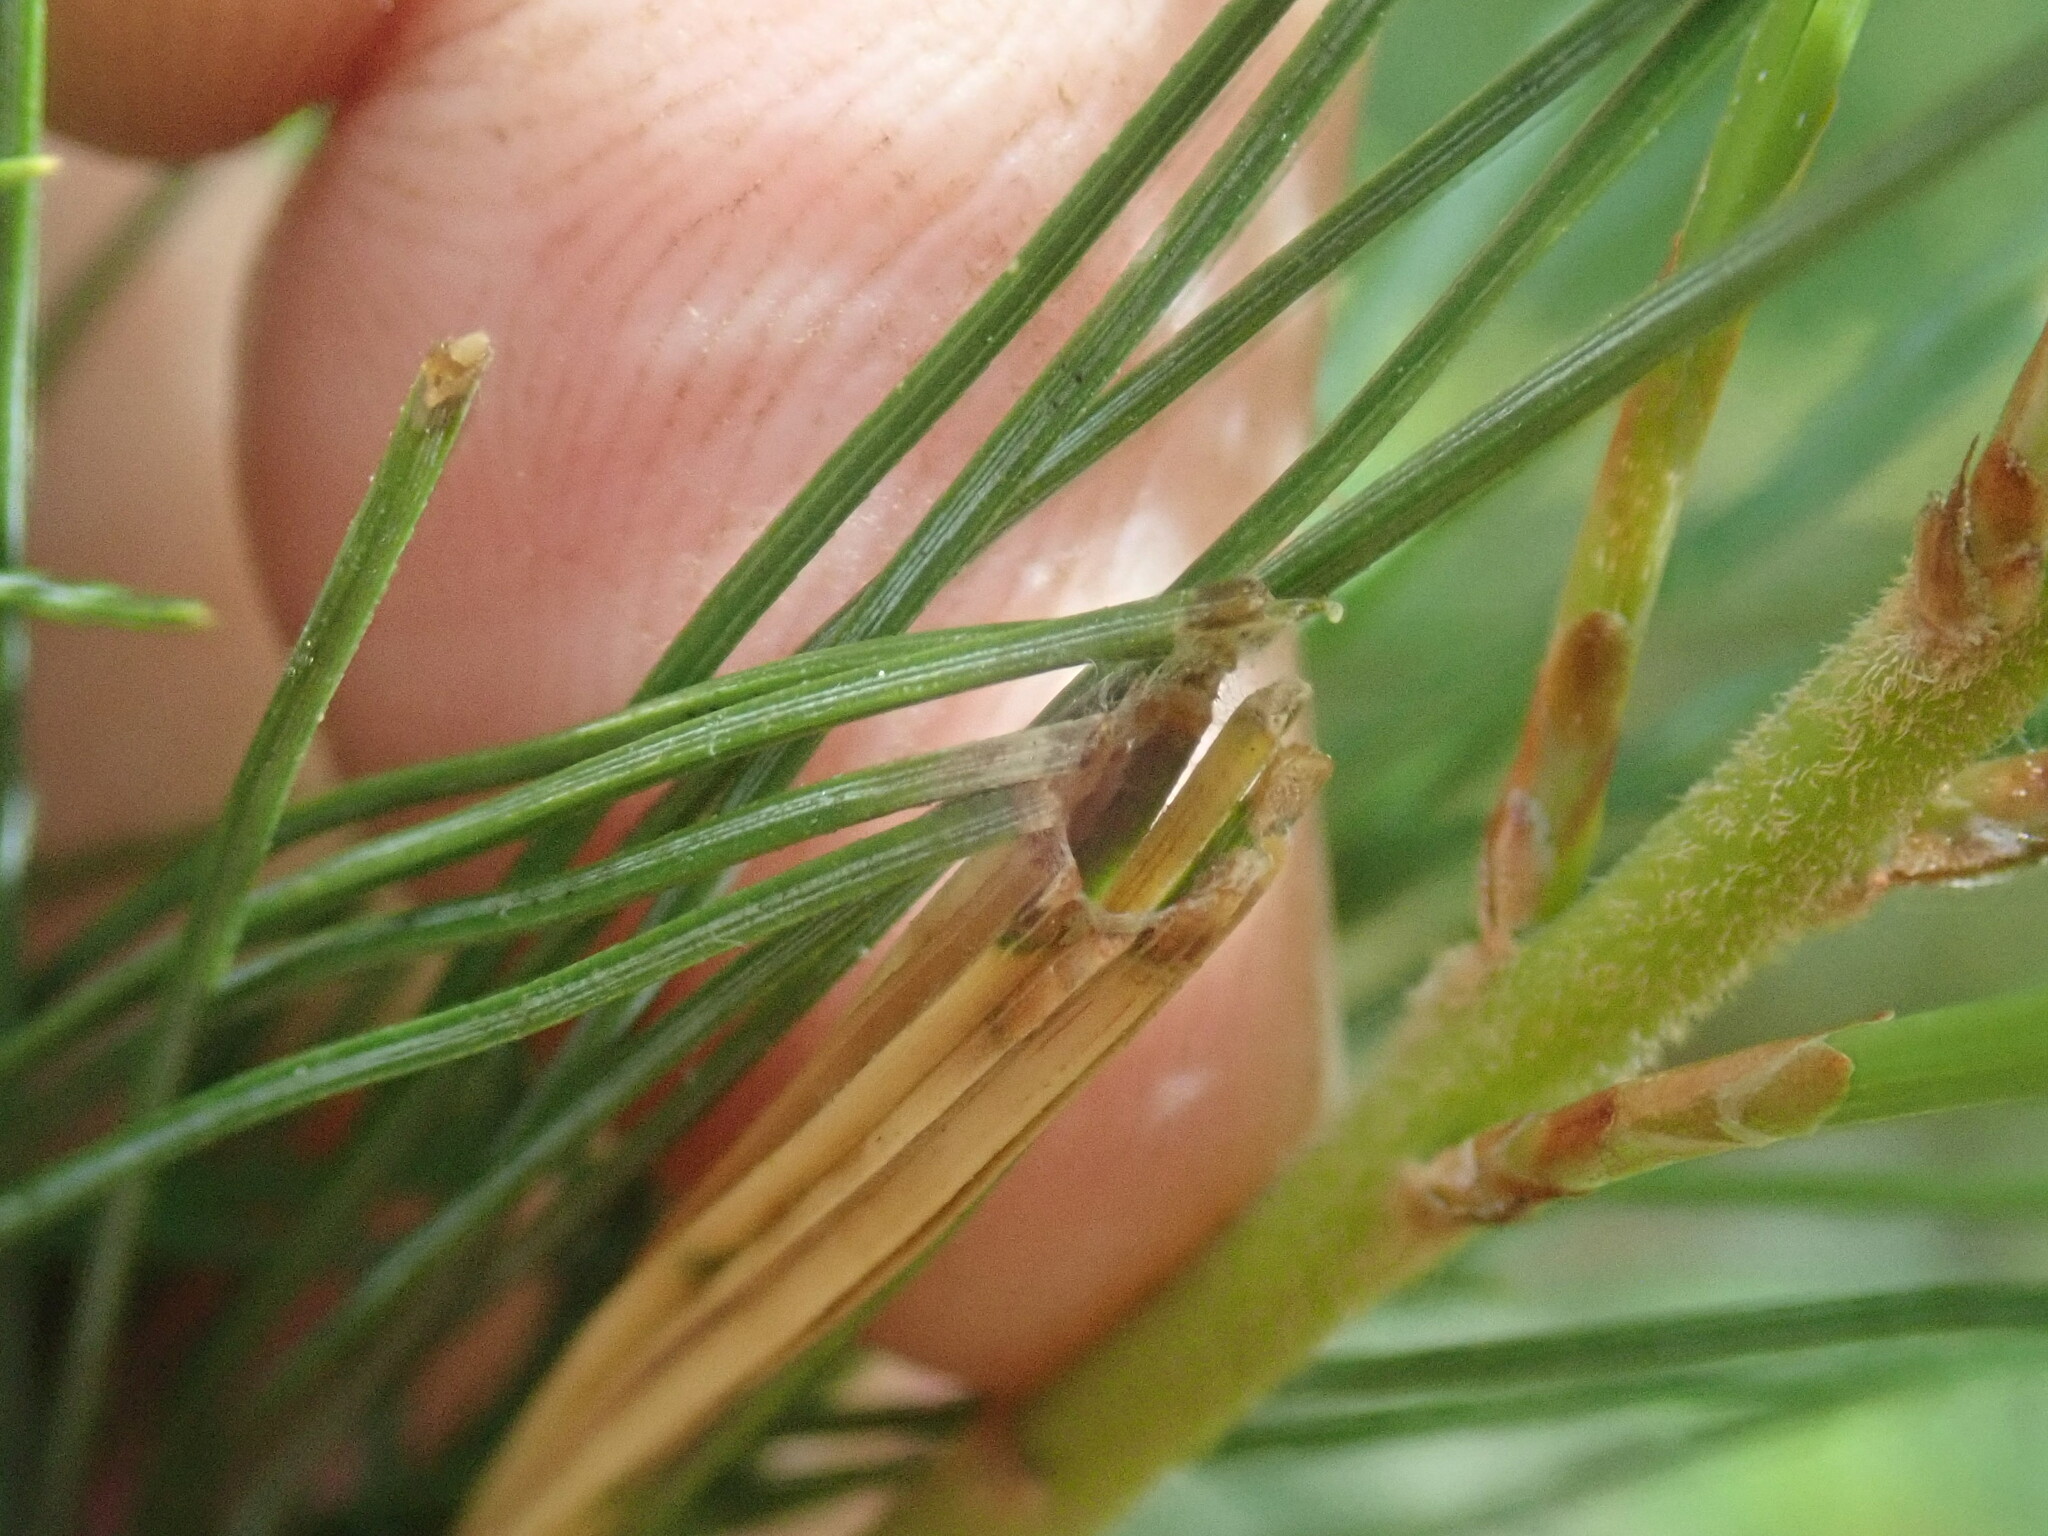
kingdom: Animalia
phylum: Arthropoda
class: Insecta
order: Lepidoptera
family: Tortricidae
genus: Argyrotaenia
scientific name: Argyrotaenia pinatubana
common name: Pine tube moth
